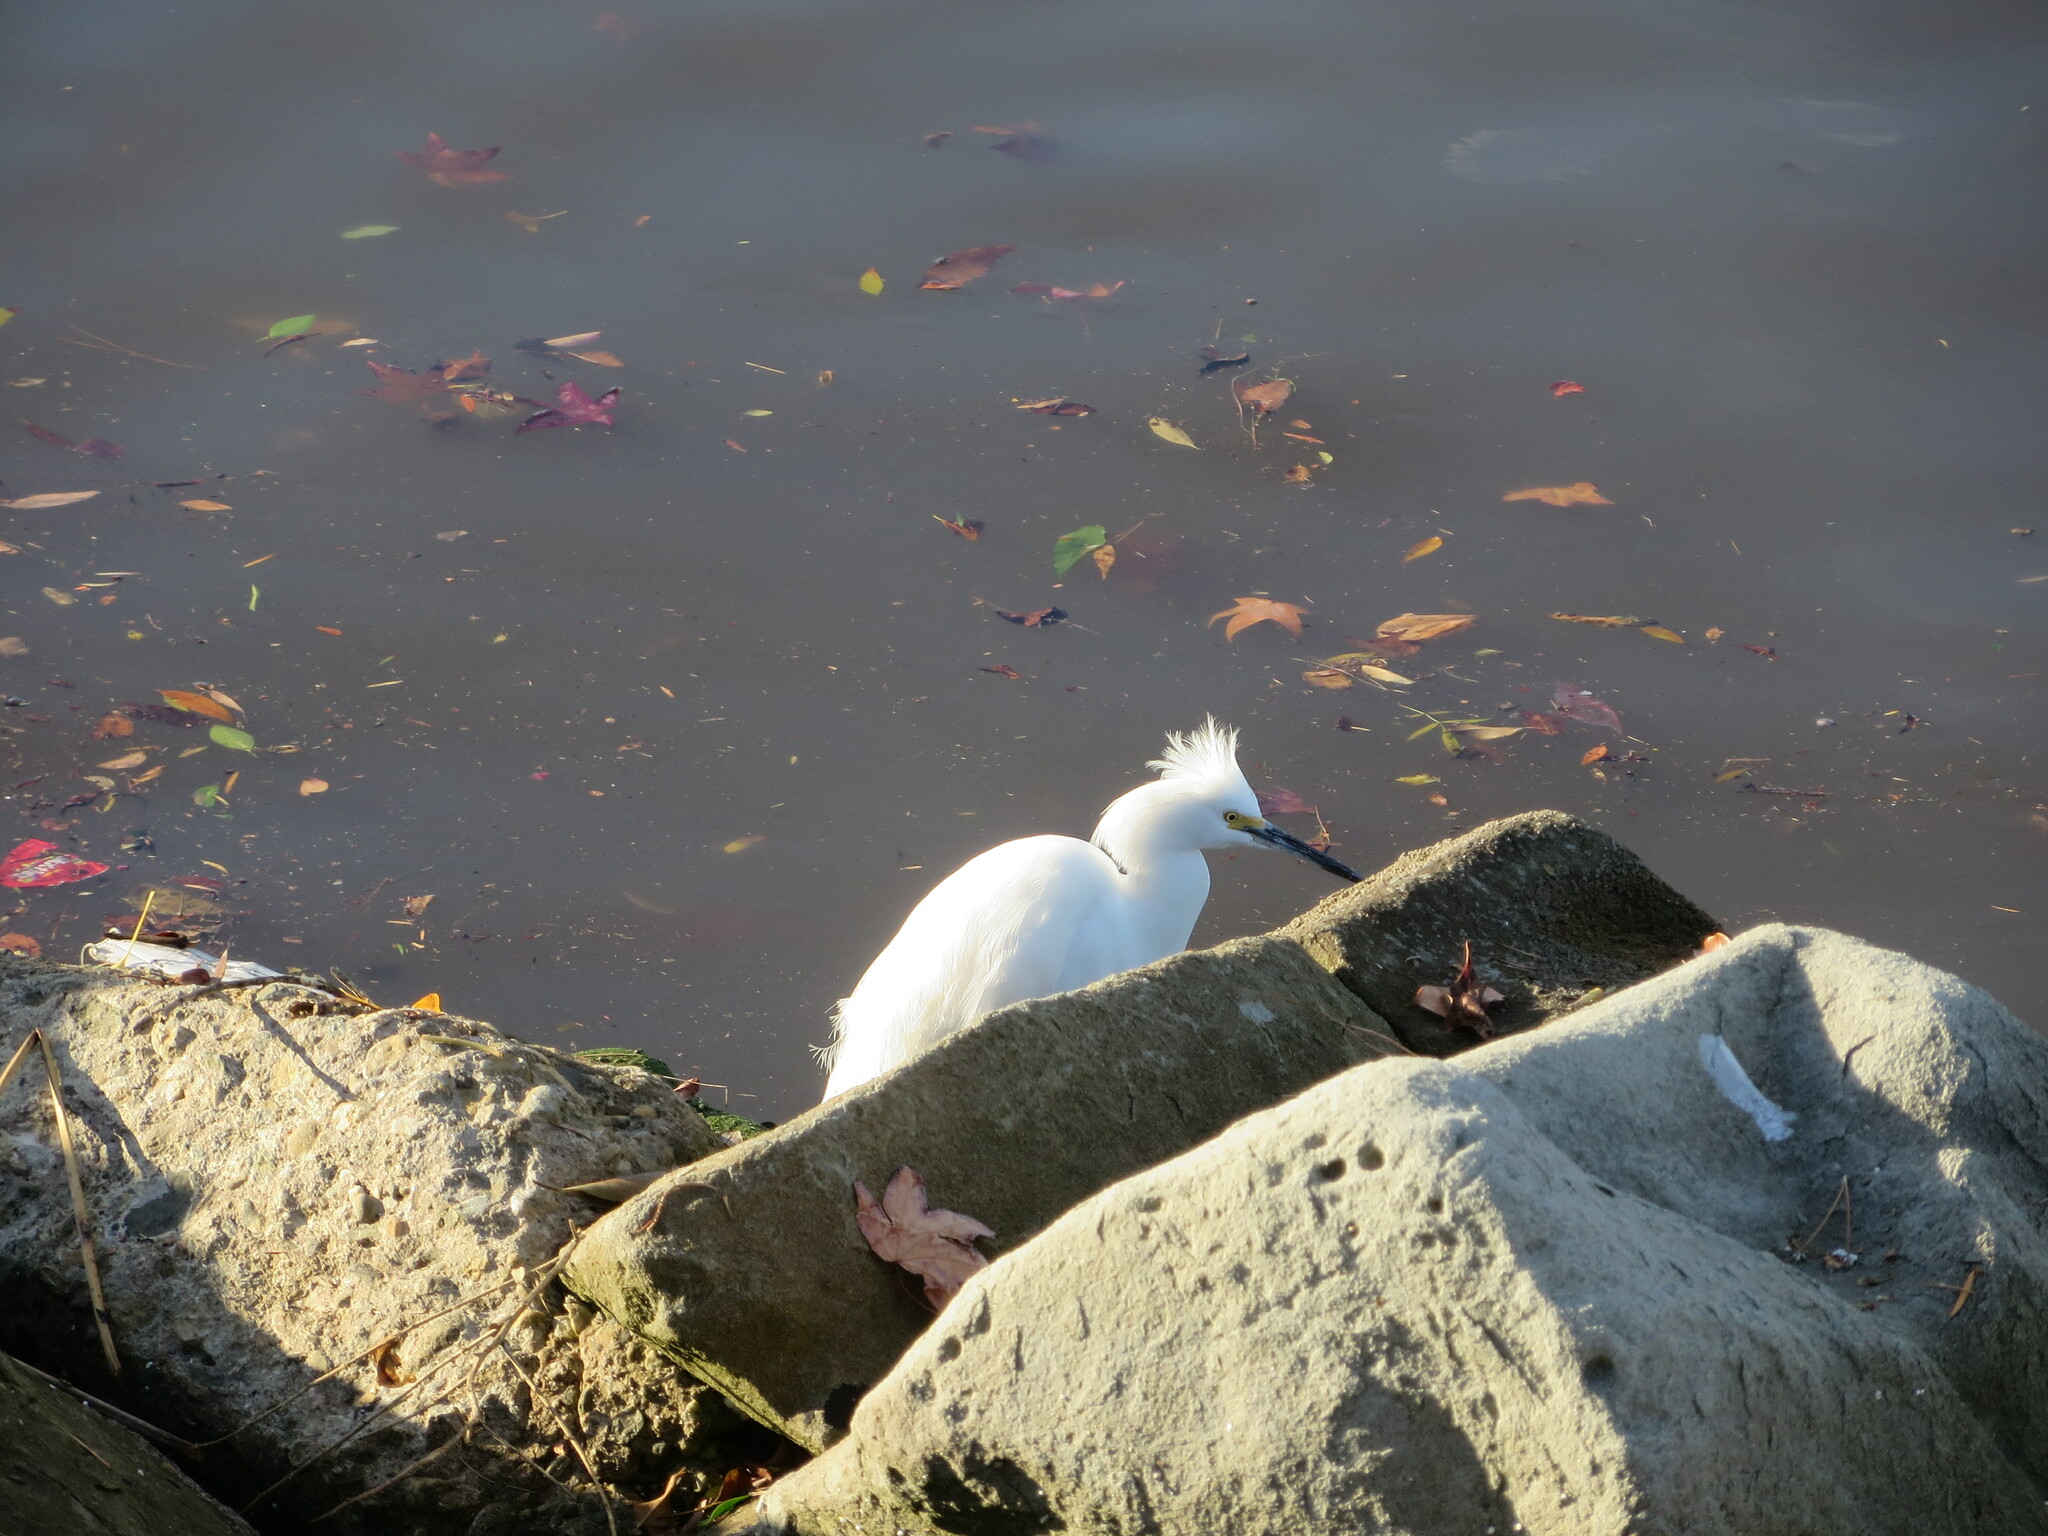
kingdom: Animalia
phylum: Chordata
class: Aves
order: Pelecaniformes
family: Ardeidae
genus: Egretta
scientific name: Egretta thula
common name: Snowy egret
